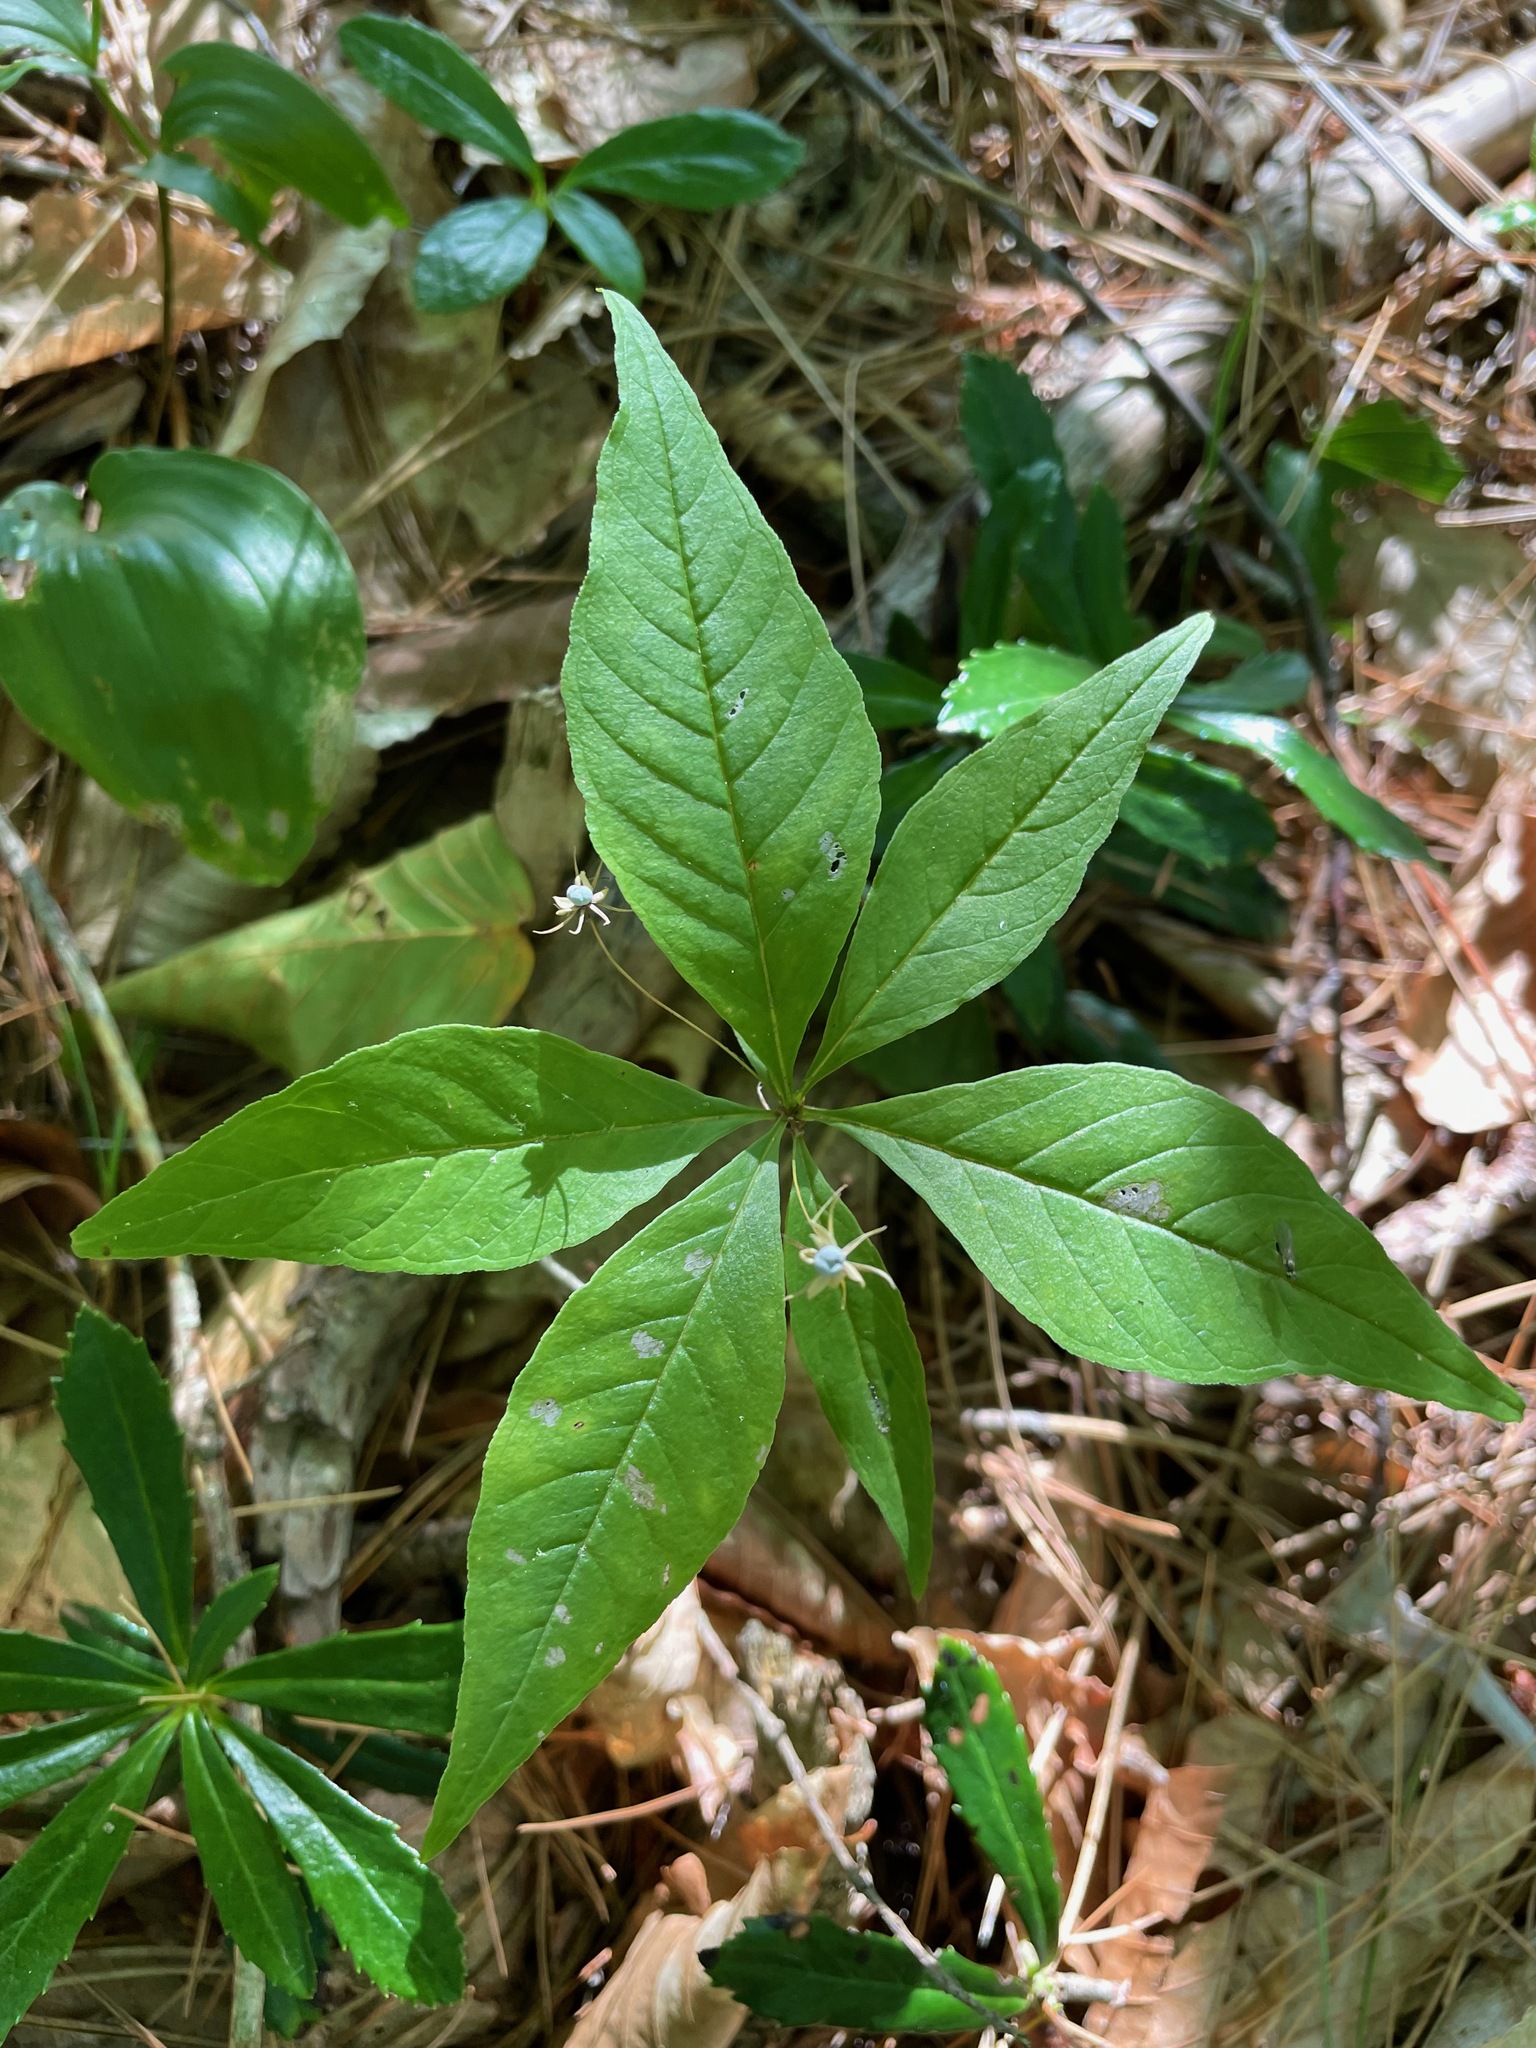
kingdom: Plantae
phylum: Tracheophyta
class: Magnoliopsida
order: Ericales
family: Primulaceae
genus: Lysimachia
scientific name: Lysimachia borealis
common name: American starflower
